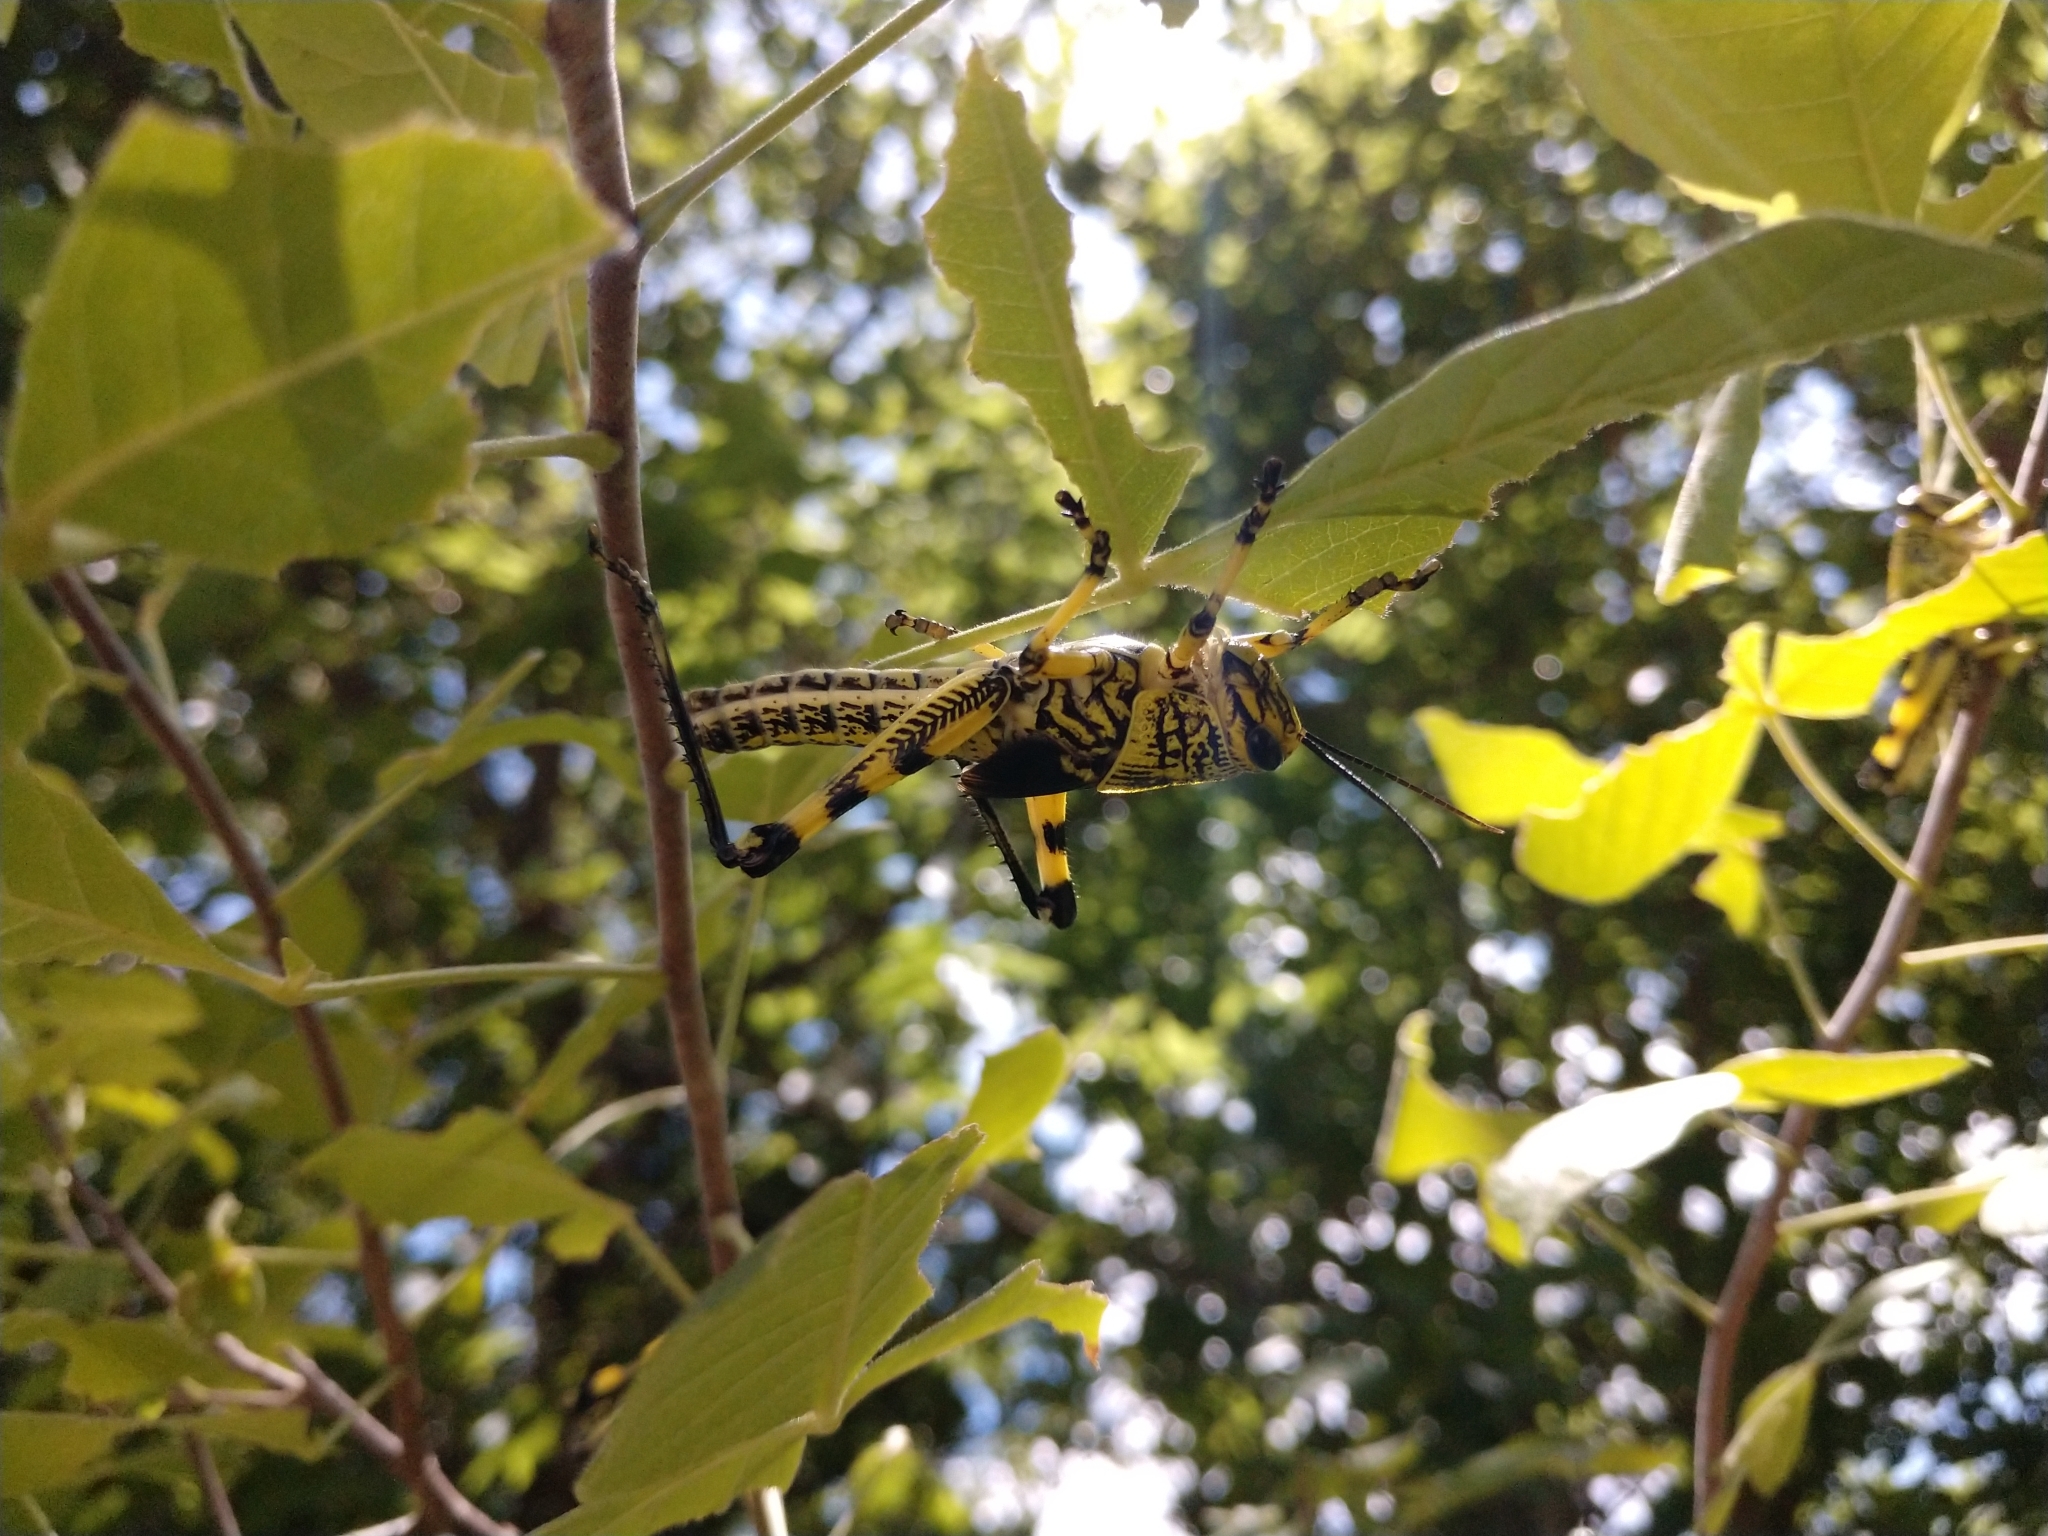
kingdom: Animalia
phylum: Arthropoda
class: Insecta
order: Orthoptera
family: Acrididae
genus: Schistocerca
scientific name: Schistocerca lineata
